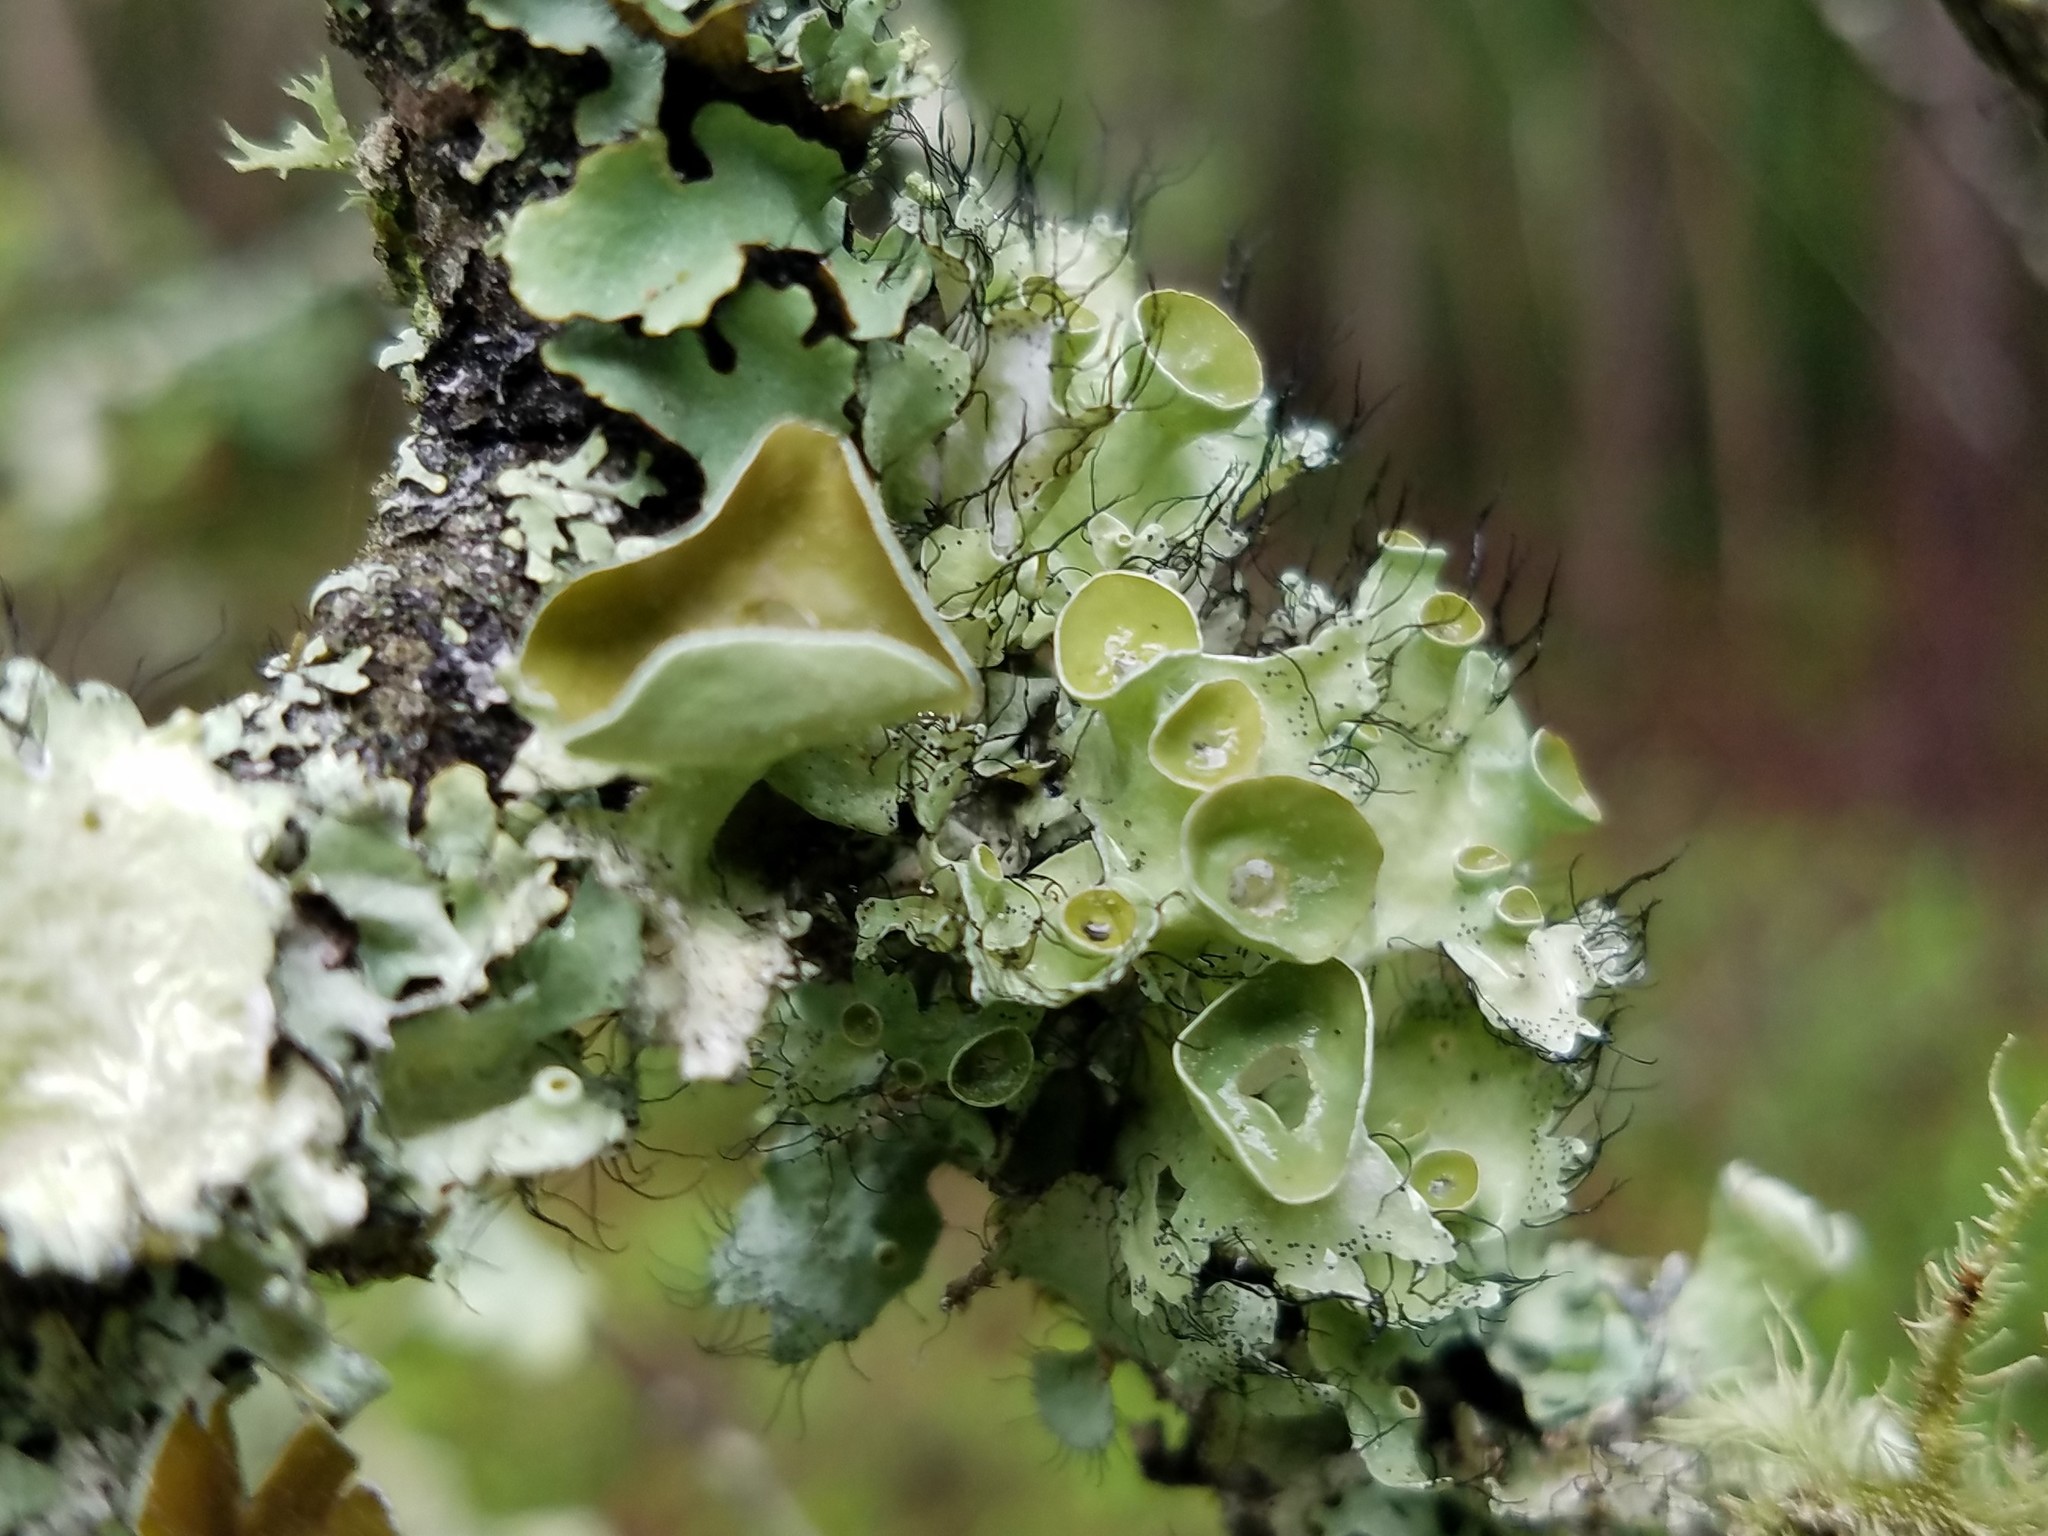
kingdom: Fungi
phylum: Ascomycota
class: Lecanoromycetes
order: Lecanorales
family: Parmeliaceae
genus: Parmotrema
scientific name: Parmotrema perforatum
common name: Perforated ruffle lichen
